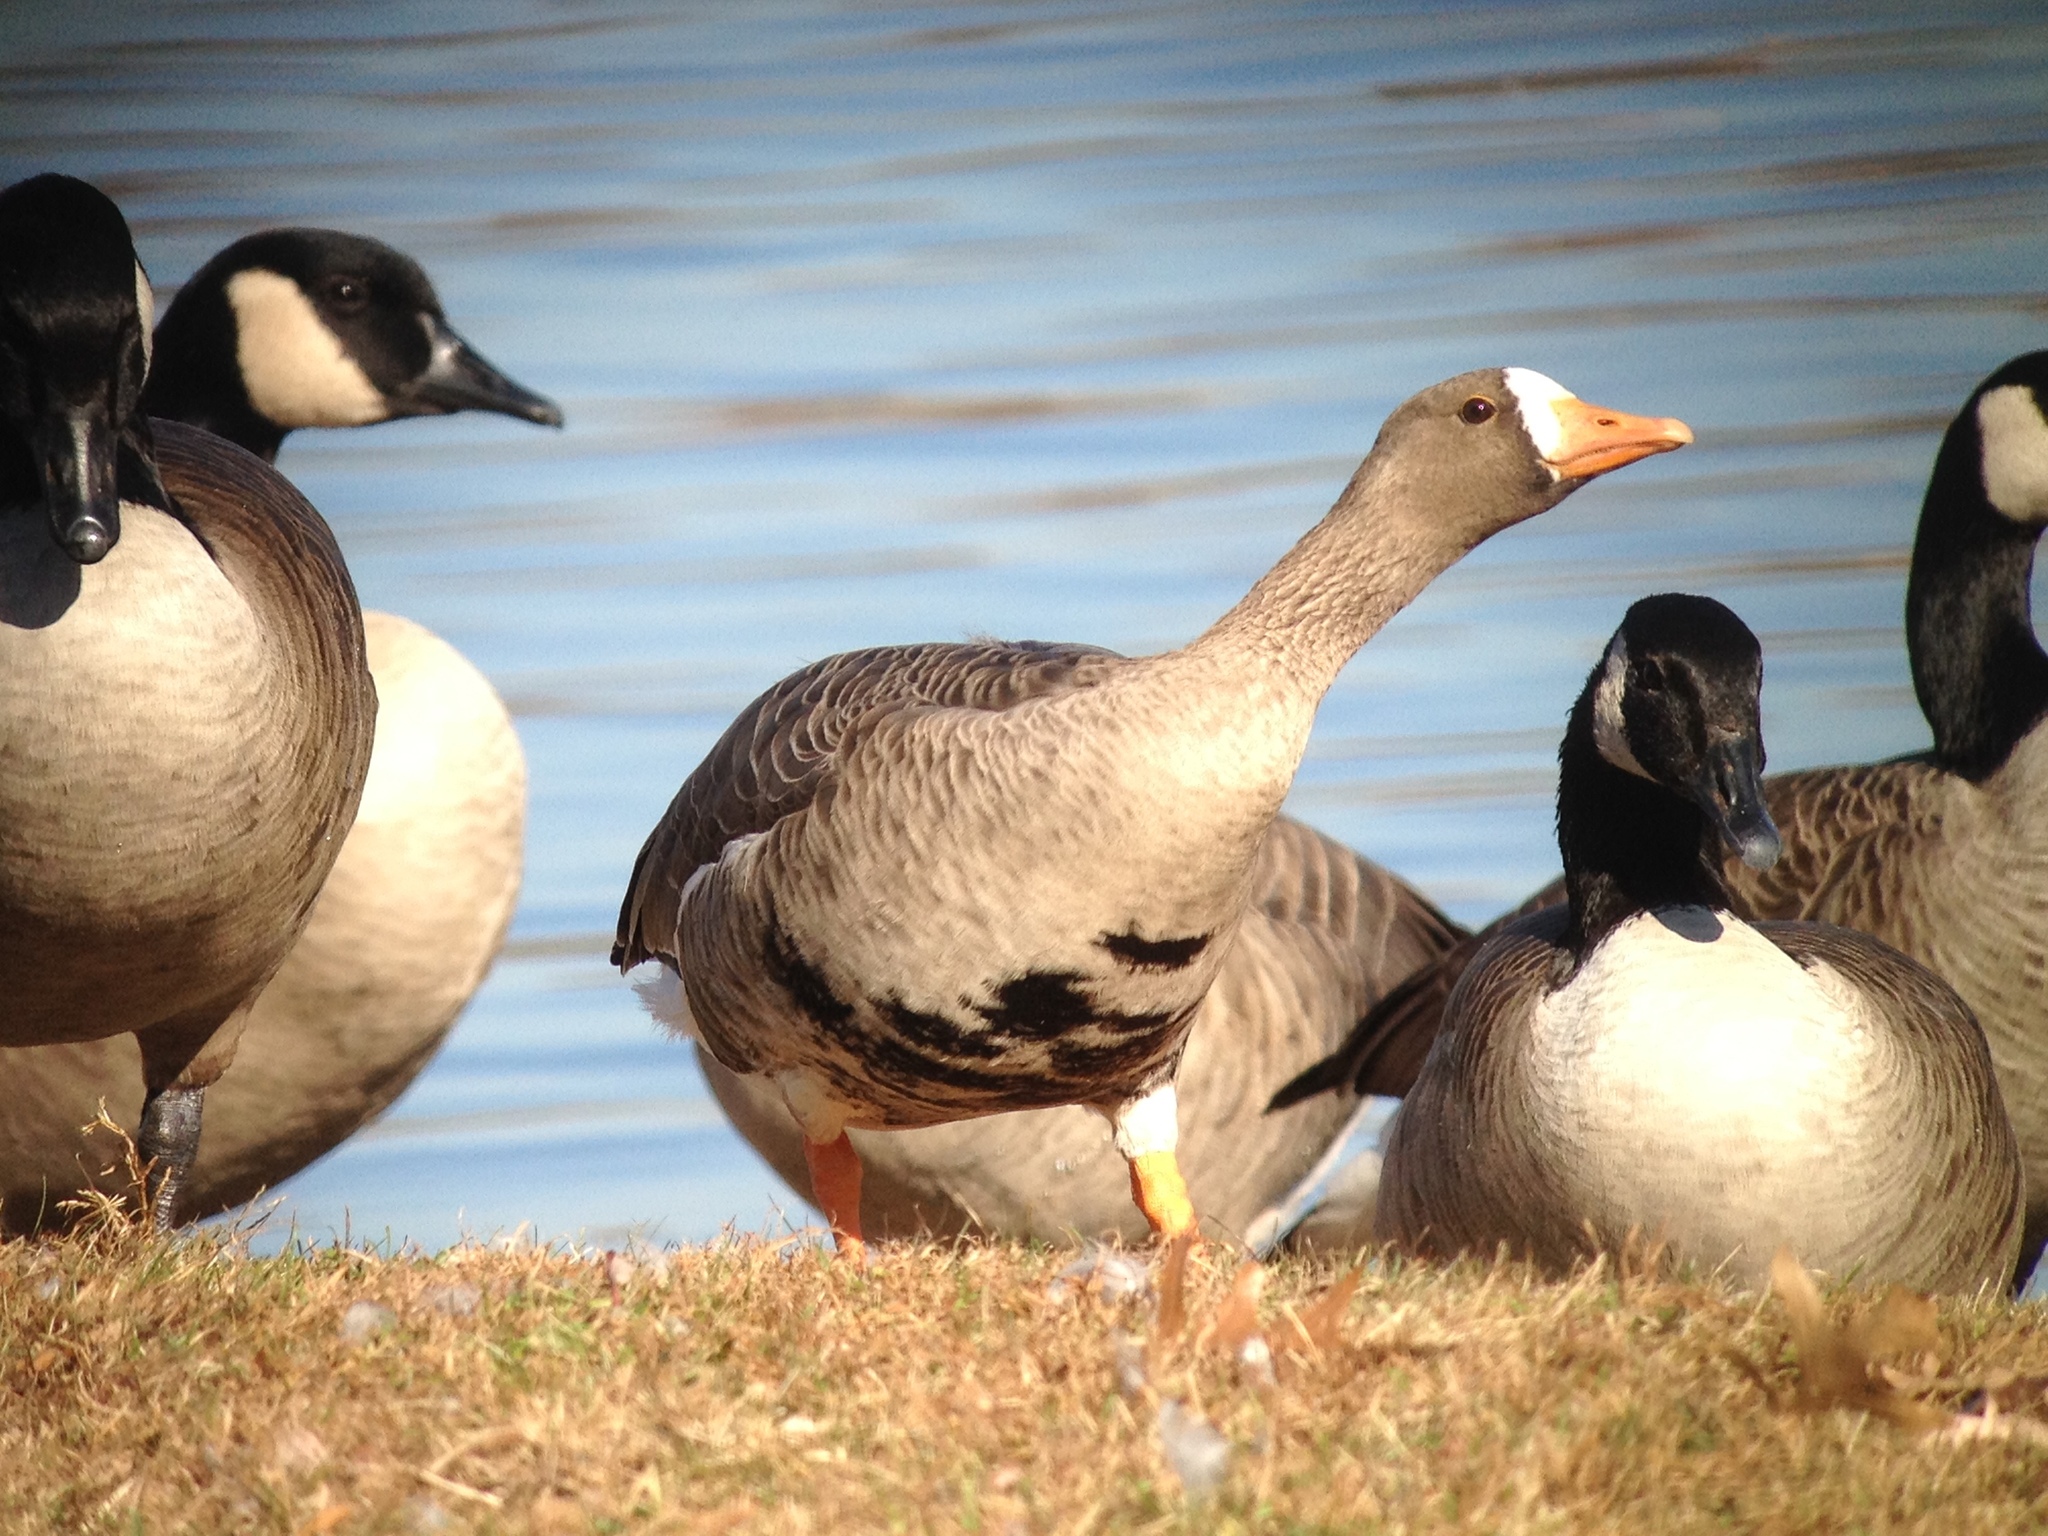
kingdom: Animalia
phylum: Chordata
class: Aves
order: Anseriformes
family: Anatidae
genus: Anser
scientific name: Anser albifrons
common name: Greater white-fronted goose
